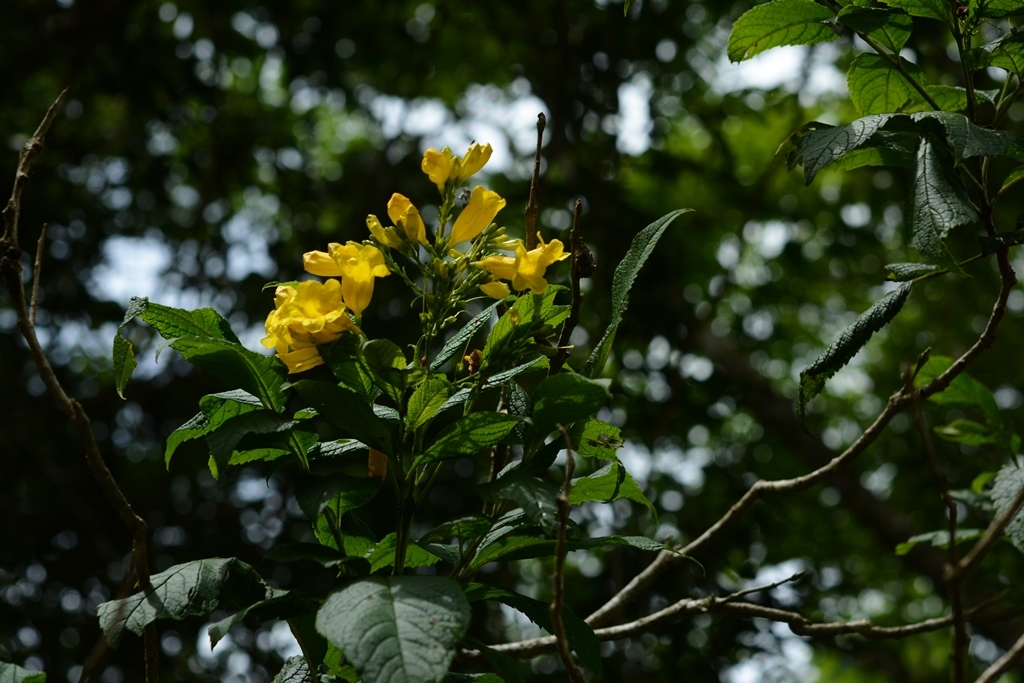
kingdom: Plantae
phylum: Tracheophyta
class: Magnoliopsida
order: Lamiales
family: Bignoniaceae
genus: Tecoma
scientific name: Tecoma stans
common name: Yellow trumpetbush
